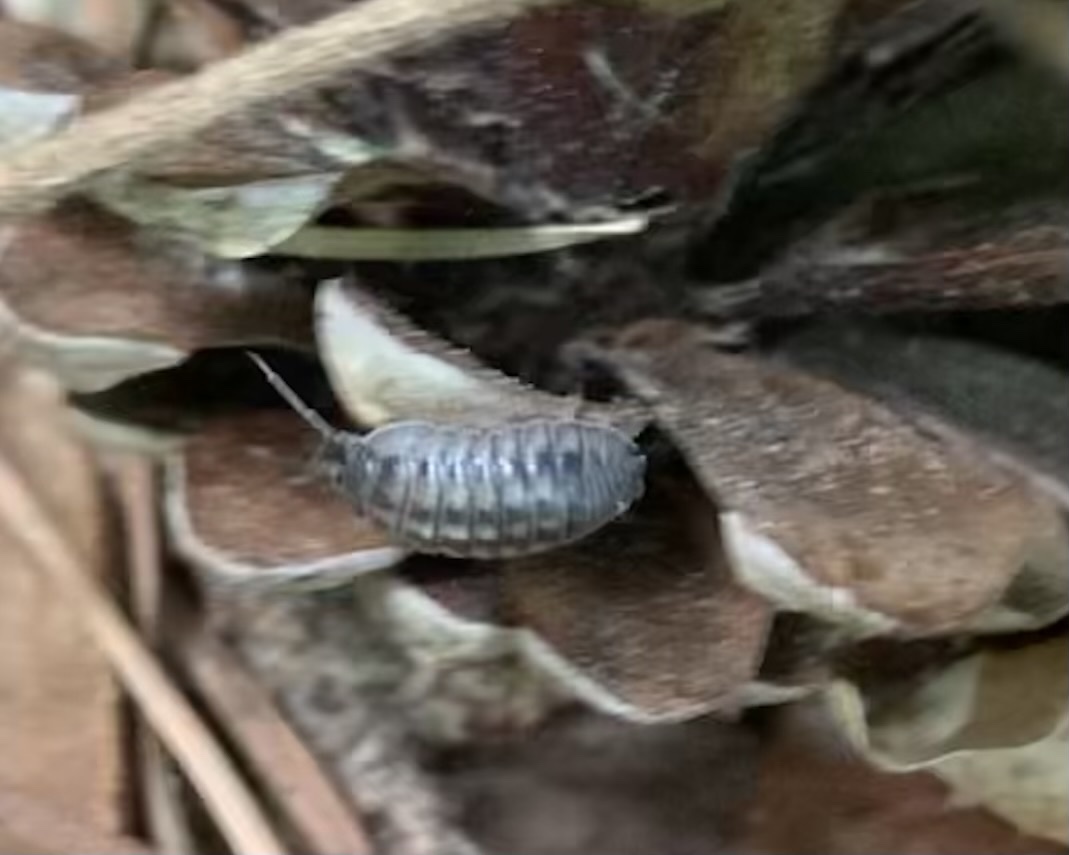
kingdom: Animalia
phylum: Arthropoda
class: Malacostraca
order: Isopoda
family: Armadillidiidae
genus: Armadillidium
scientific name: Armadillidium nasatum
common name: Isopod
